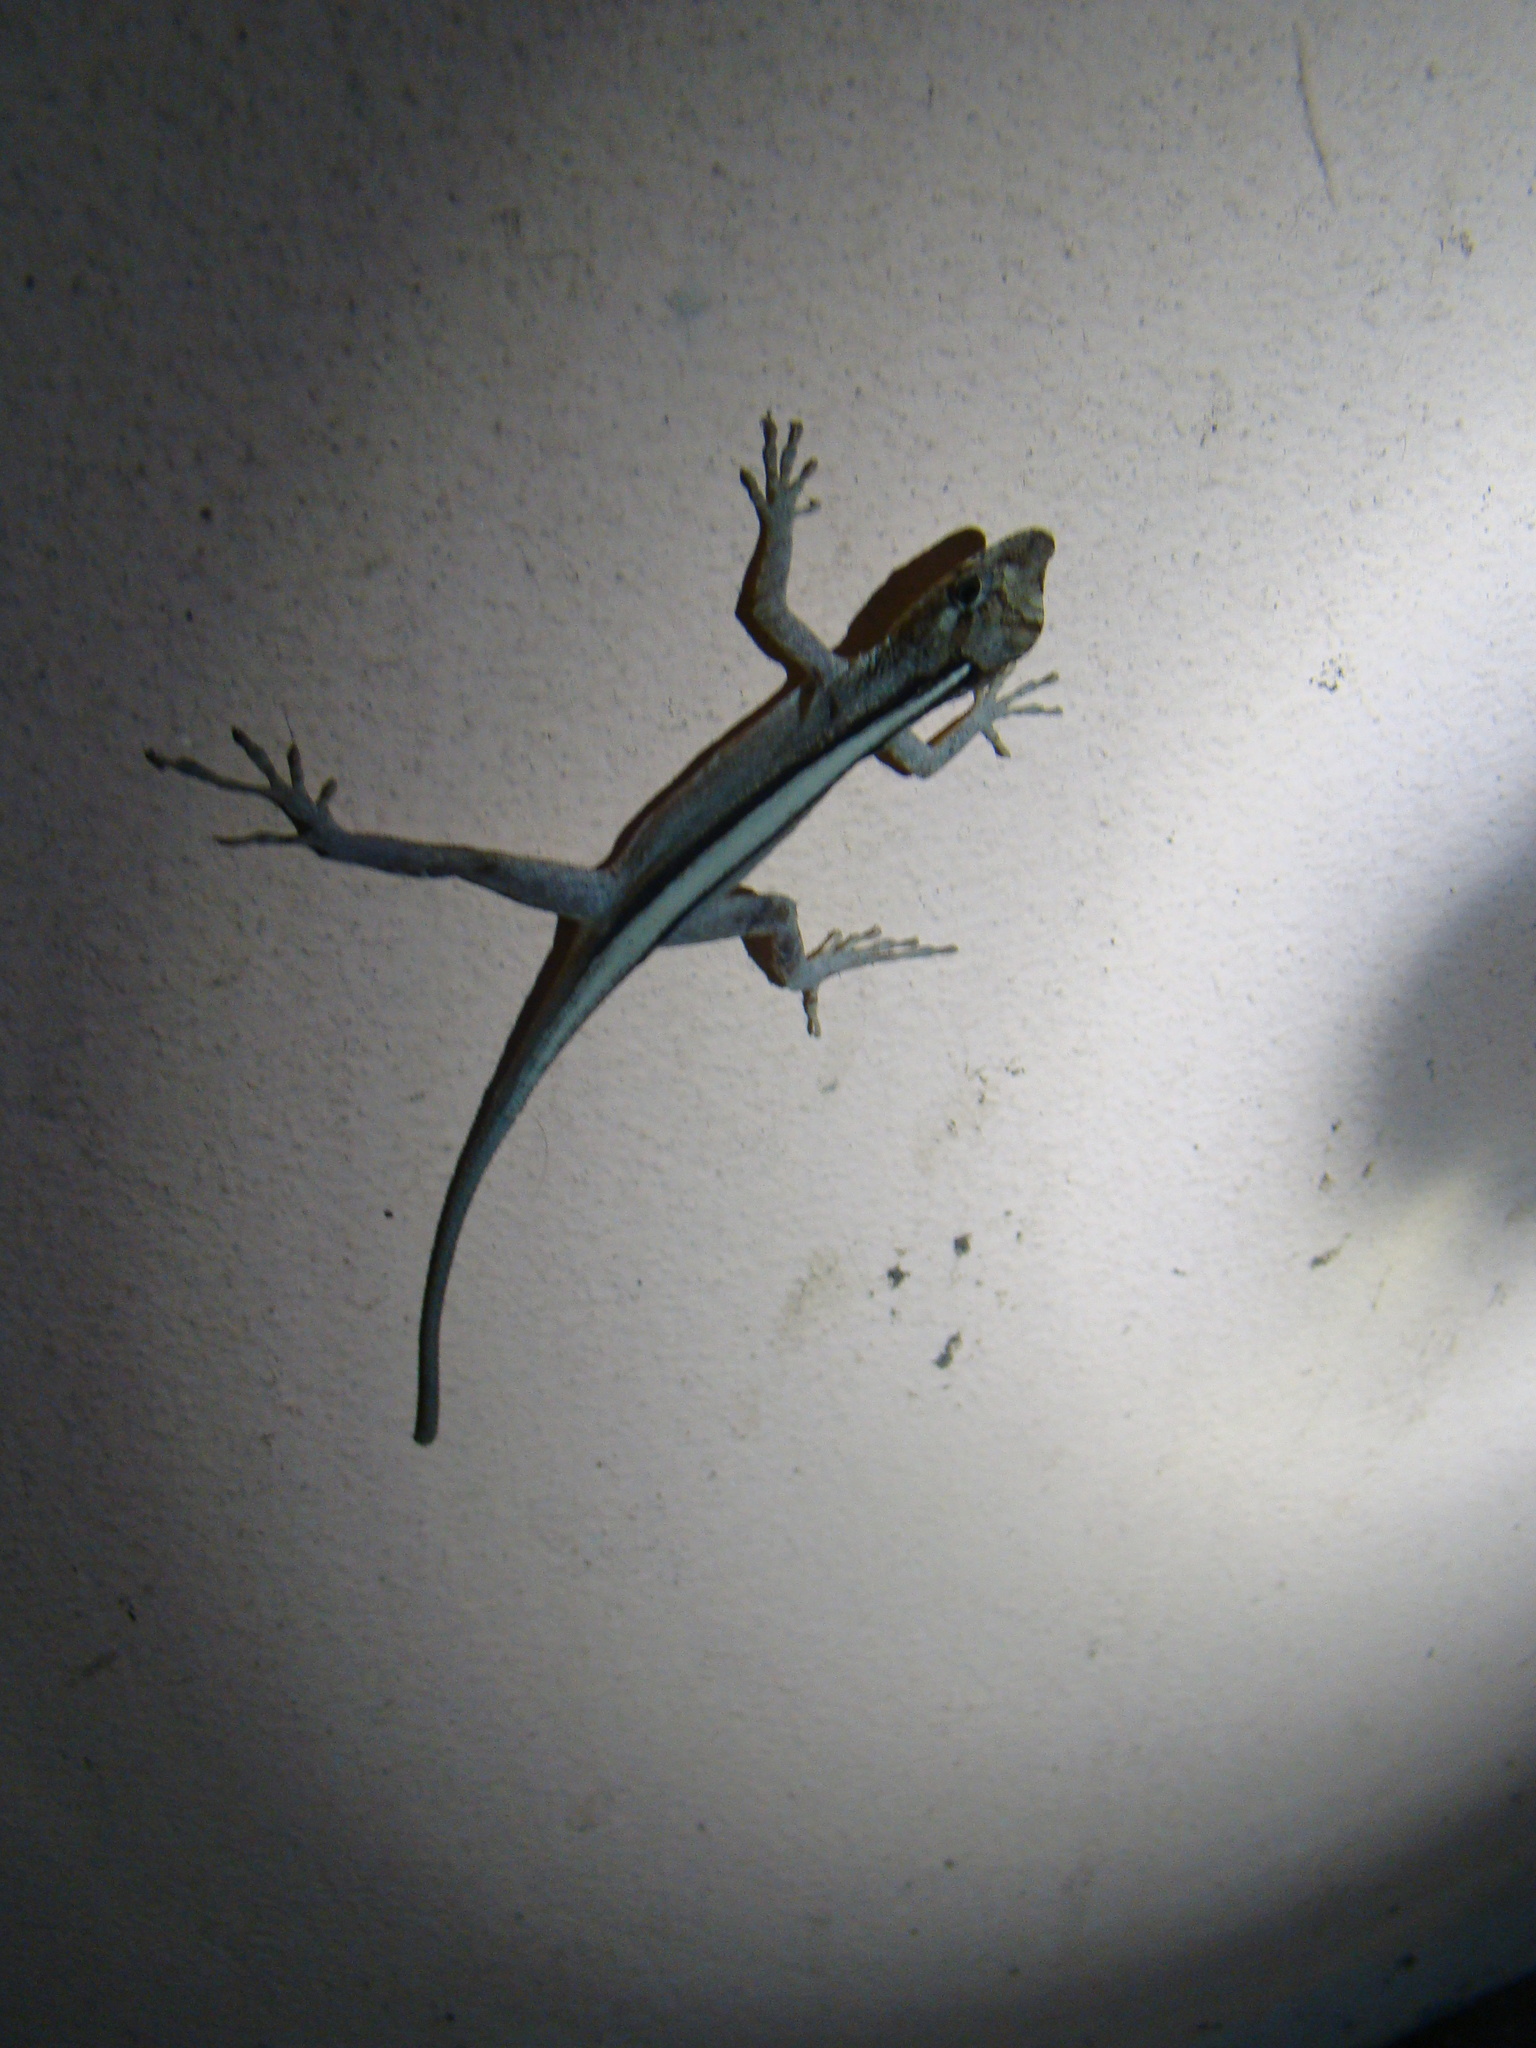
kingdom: Animalia
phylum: Chordata
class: Squamata
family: Dactyloidae
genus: Anolis
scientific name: Anolis lemurinus
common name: Ghost anole
